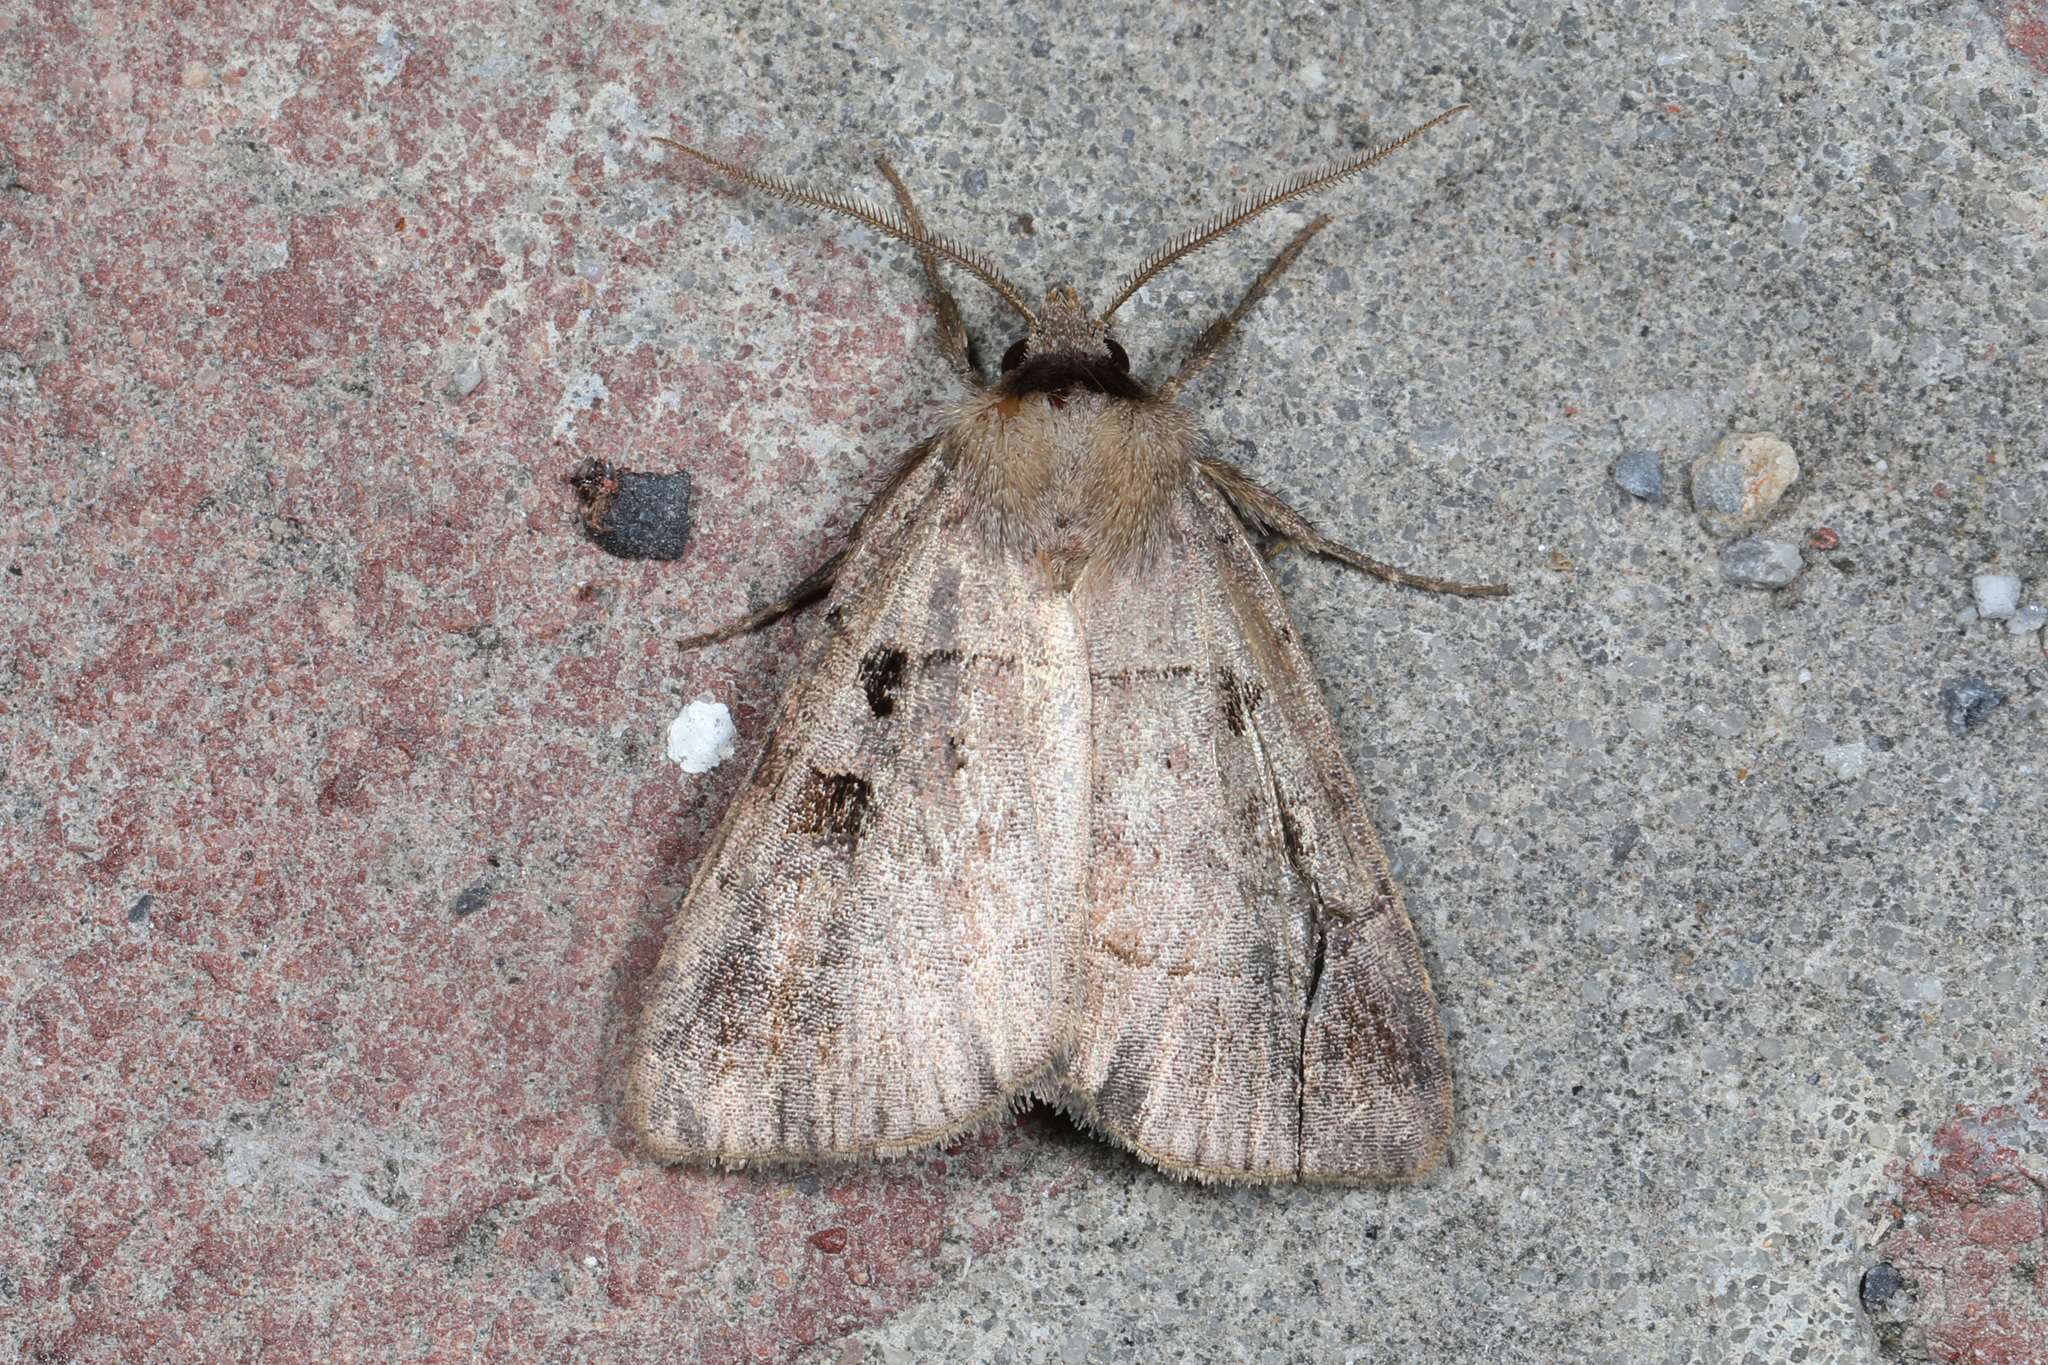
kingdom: Animalia
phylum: Arthropoda
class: Insecta
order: Lepidoptera
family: Noctuidae
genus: Agnorisma
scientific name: Agnorisma badinodis
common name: Pale-banded dart
